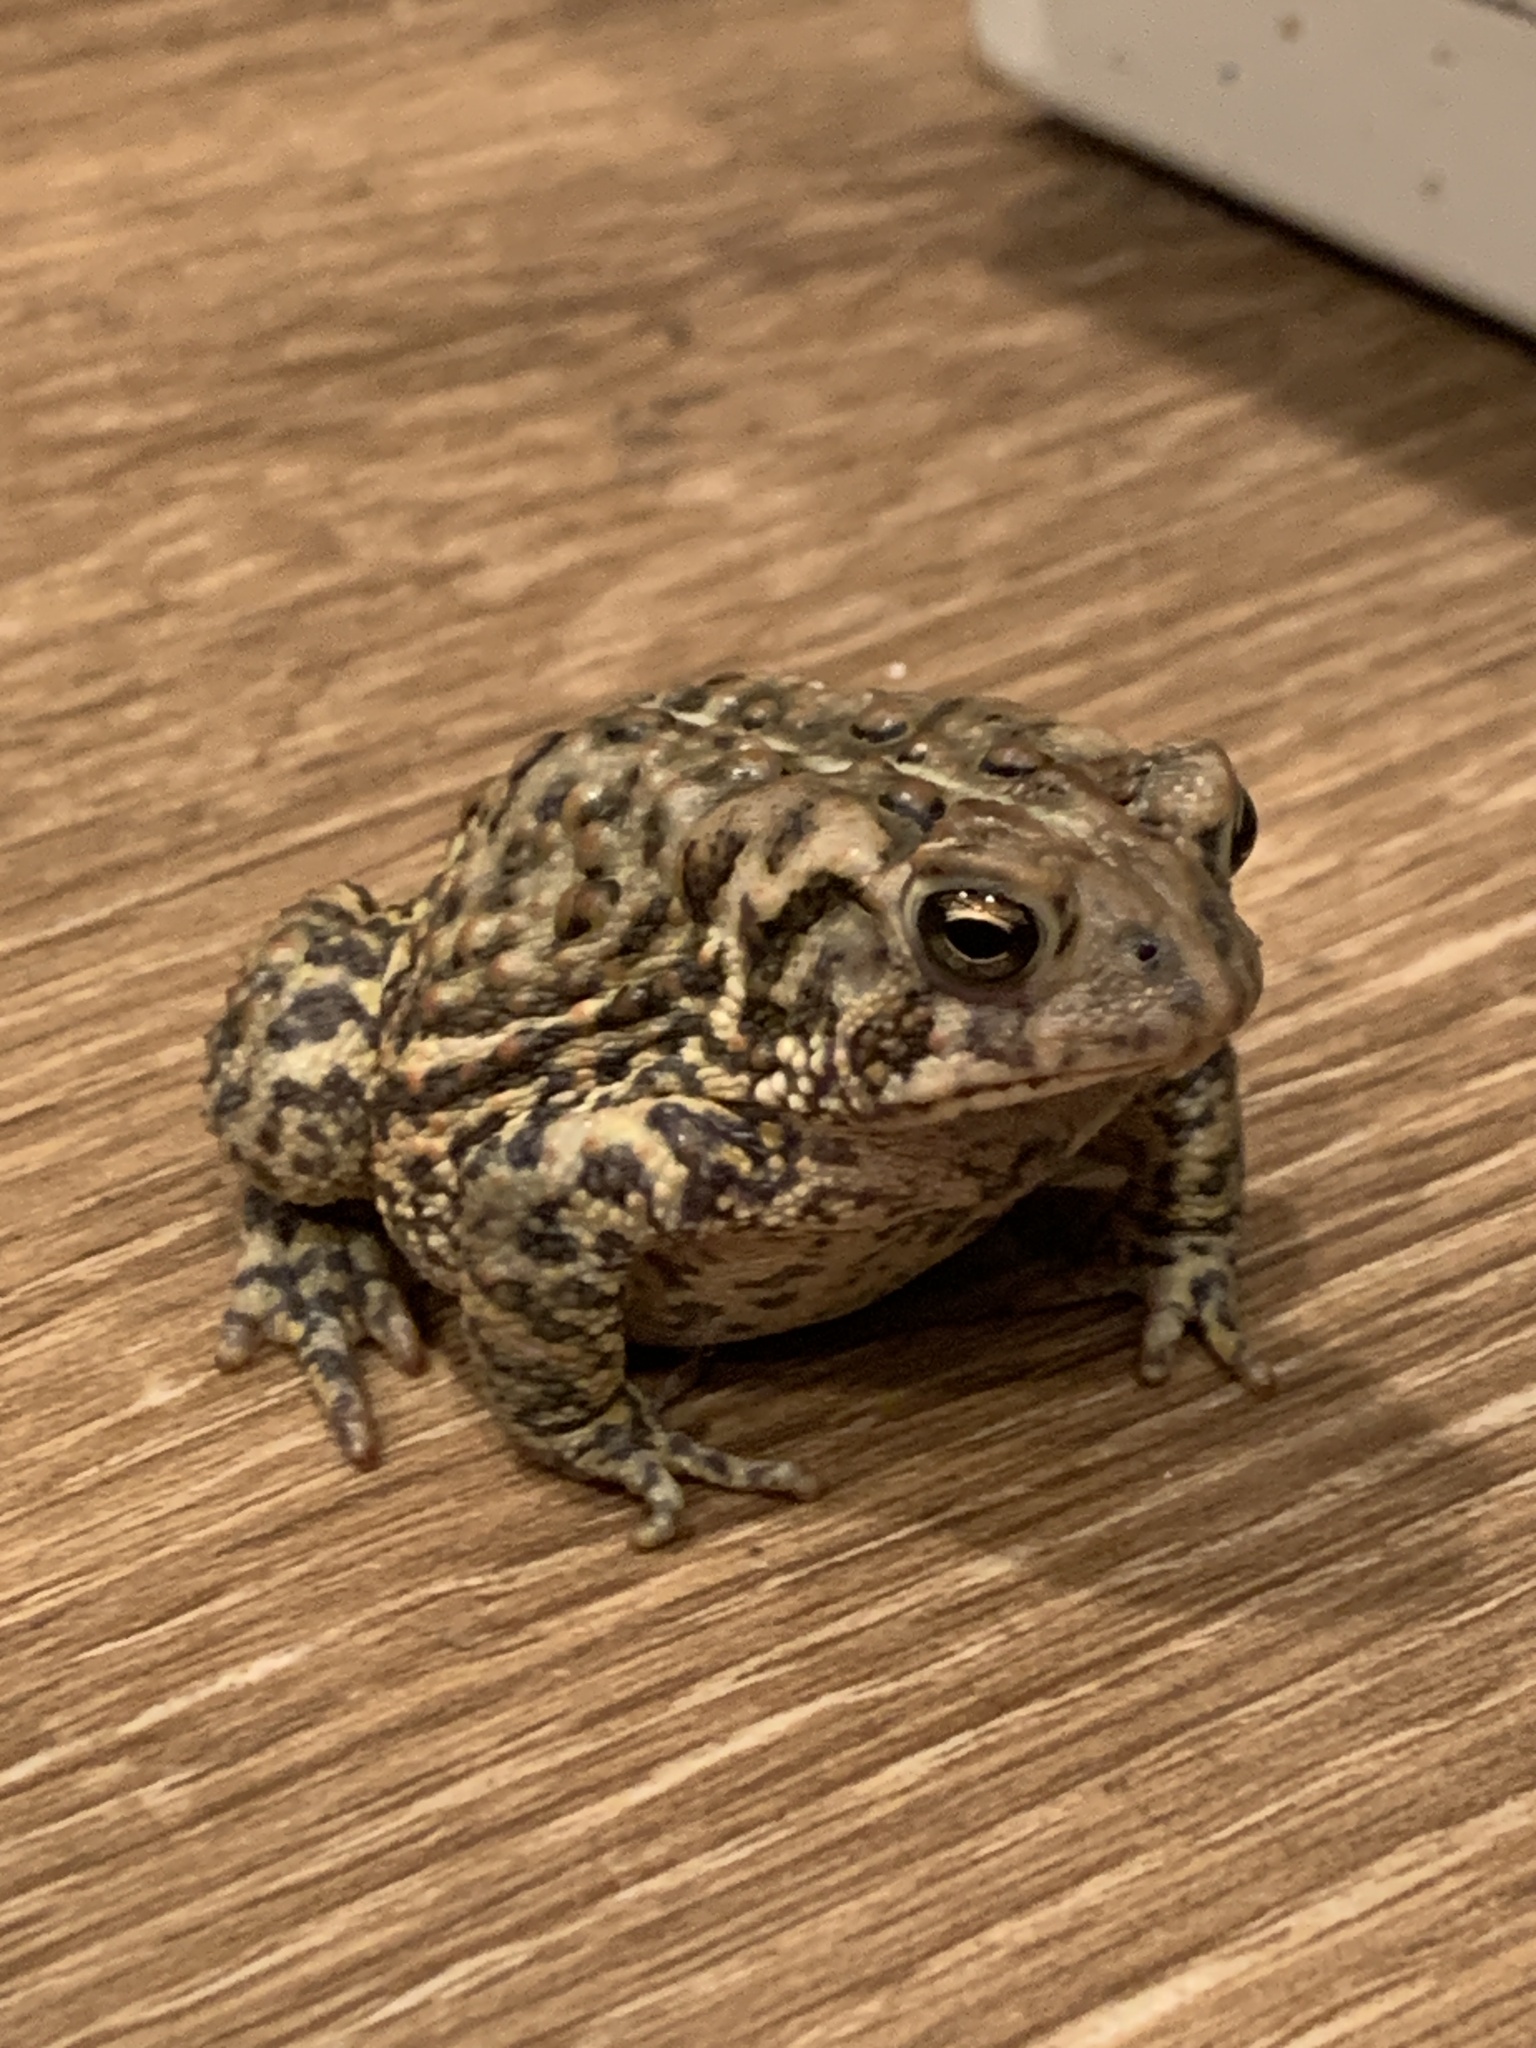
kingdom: Animalia
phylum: Chordata
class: Amphibia
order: Anura
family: Bufonidae
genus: Anaxyrus
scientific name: Anaxyrus americanus
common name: American toad
